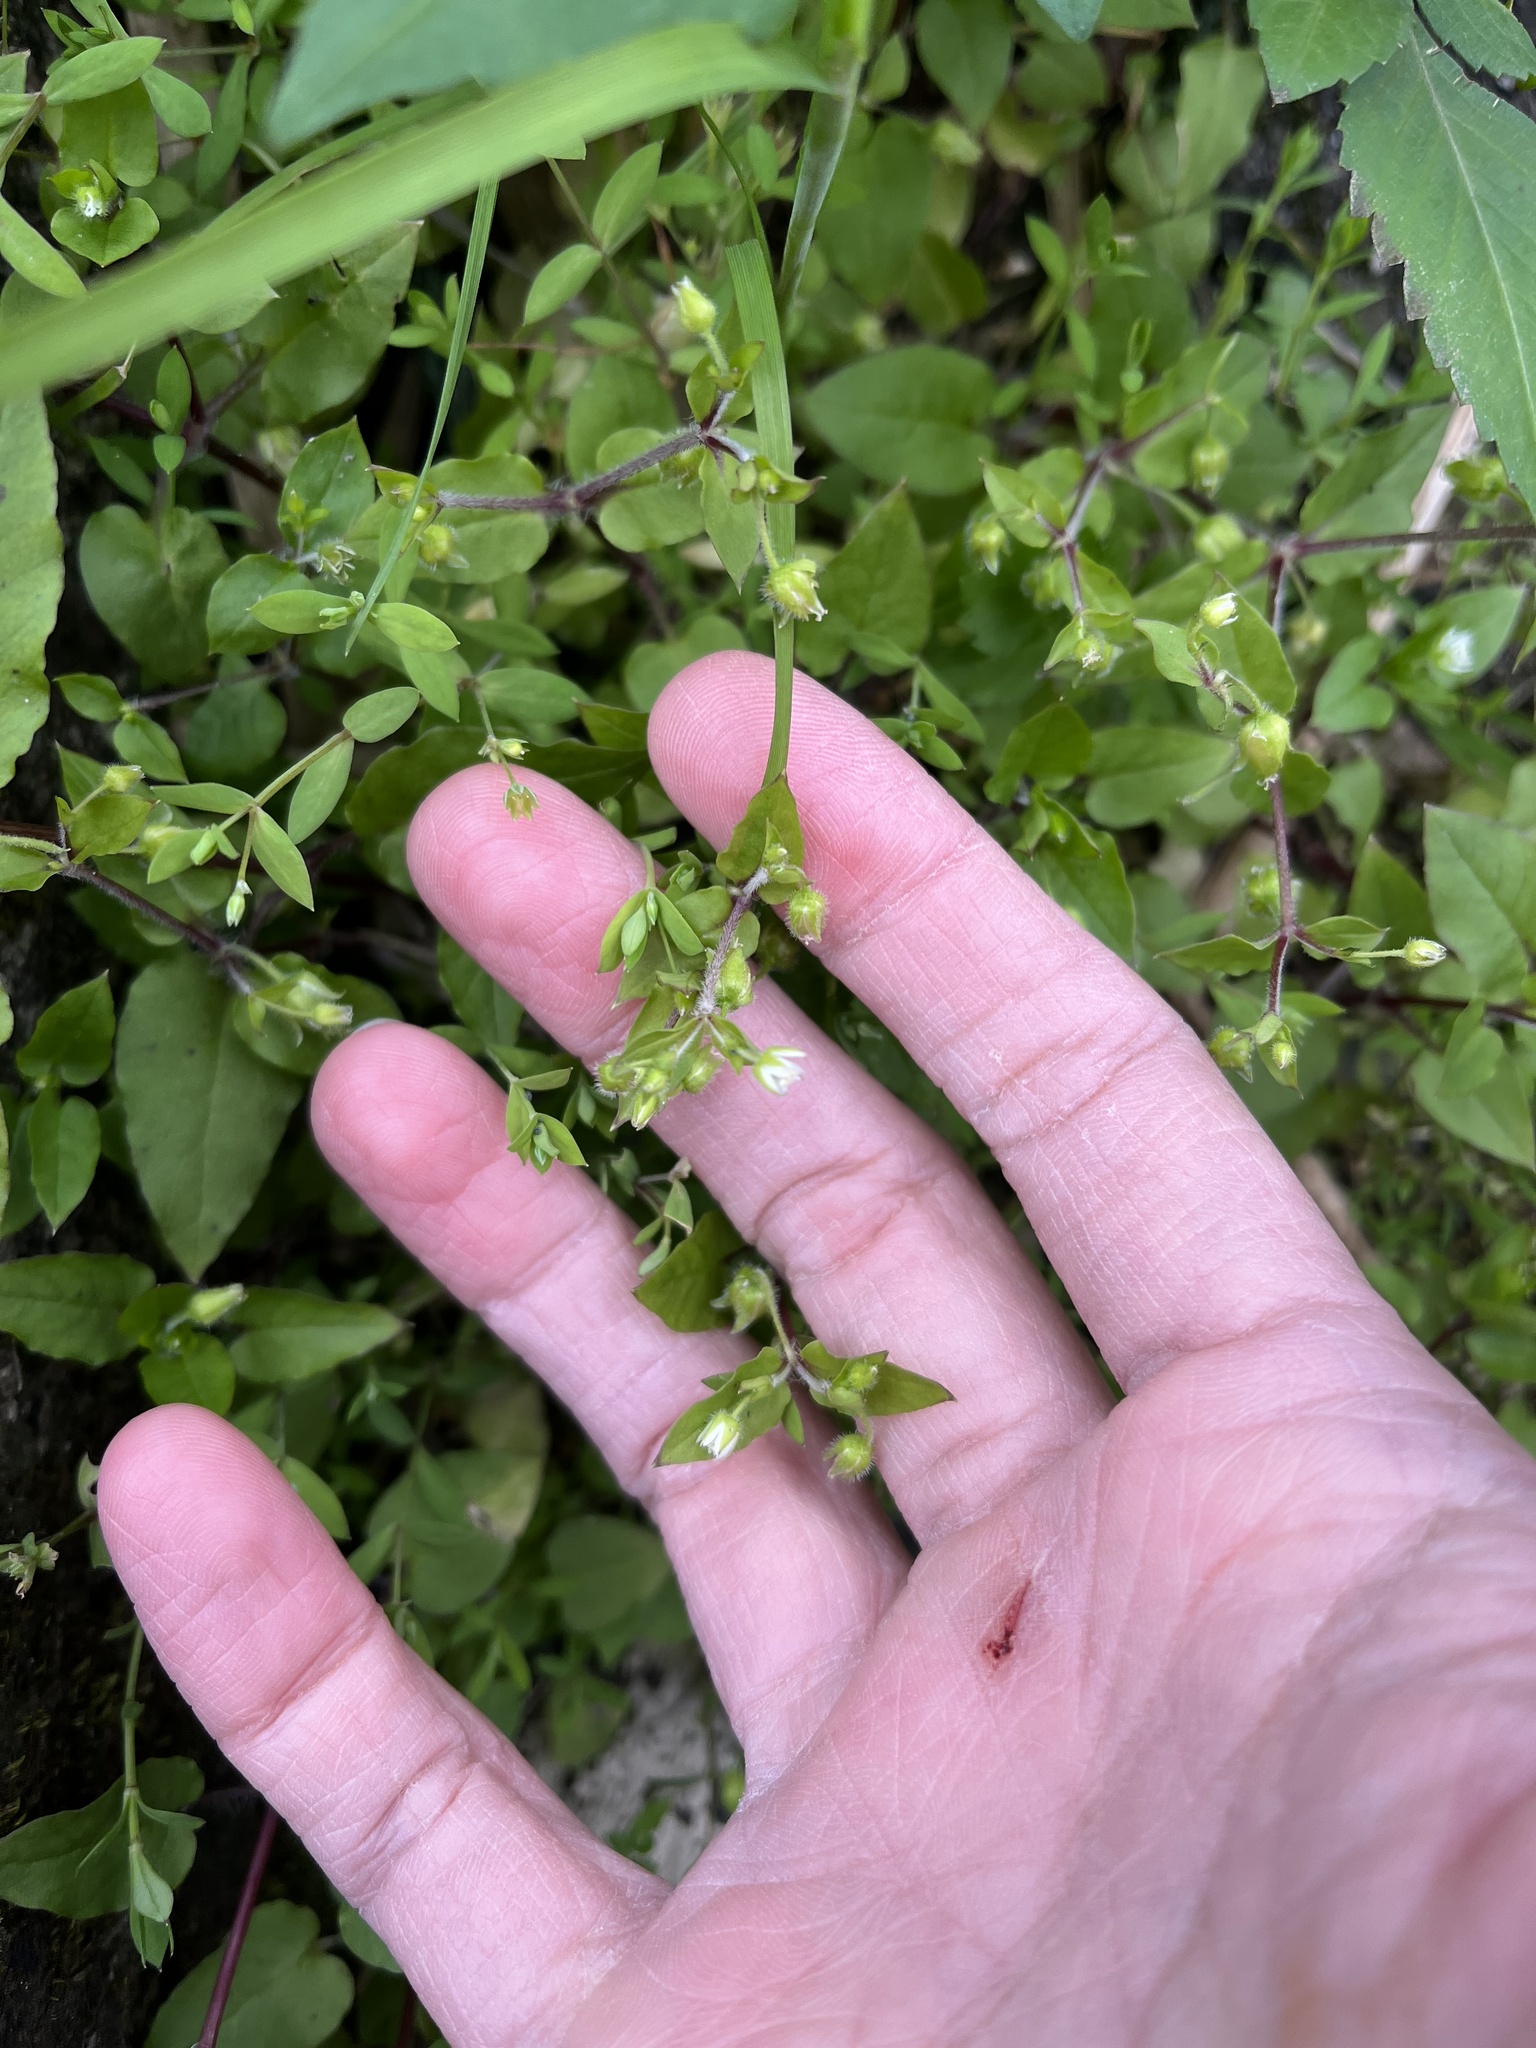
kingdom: Plantae
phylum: Tracheophyta
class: Magnoliopsida
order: Caryophyllales
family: Caryophyllaceae
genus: Stellaria
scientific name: Stellaria aquatica
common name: Water chickweed
